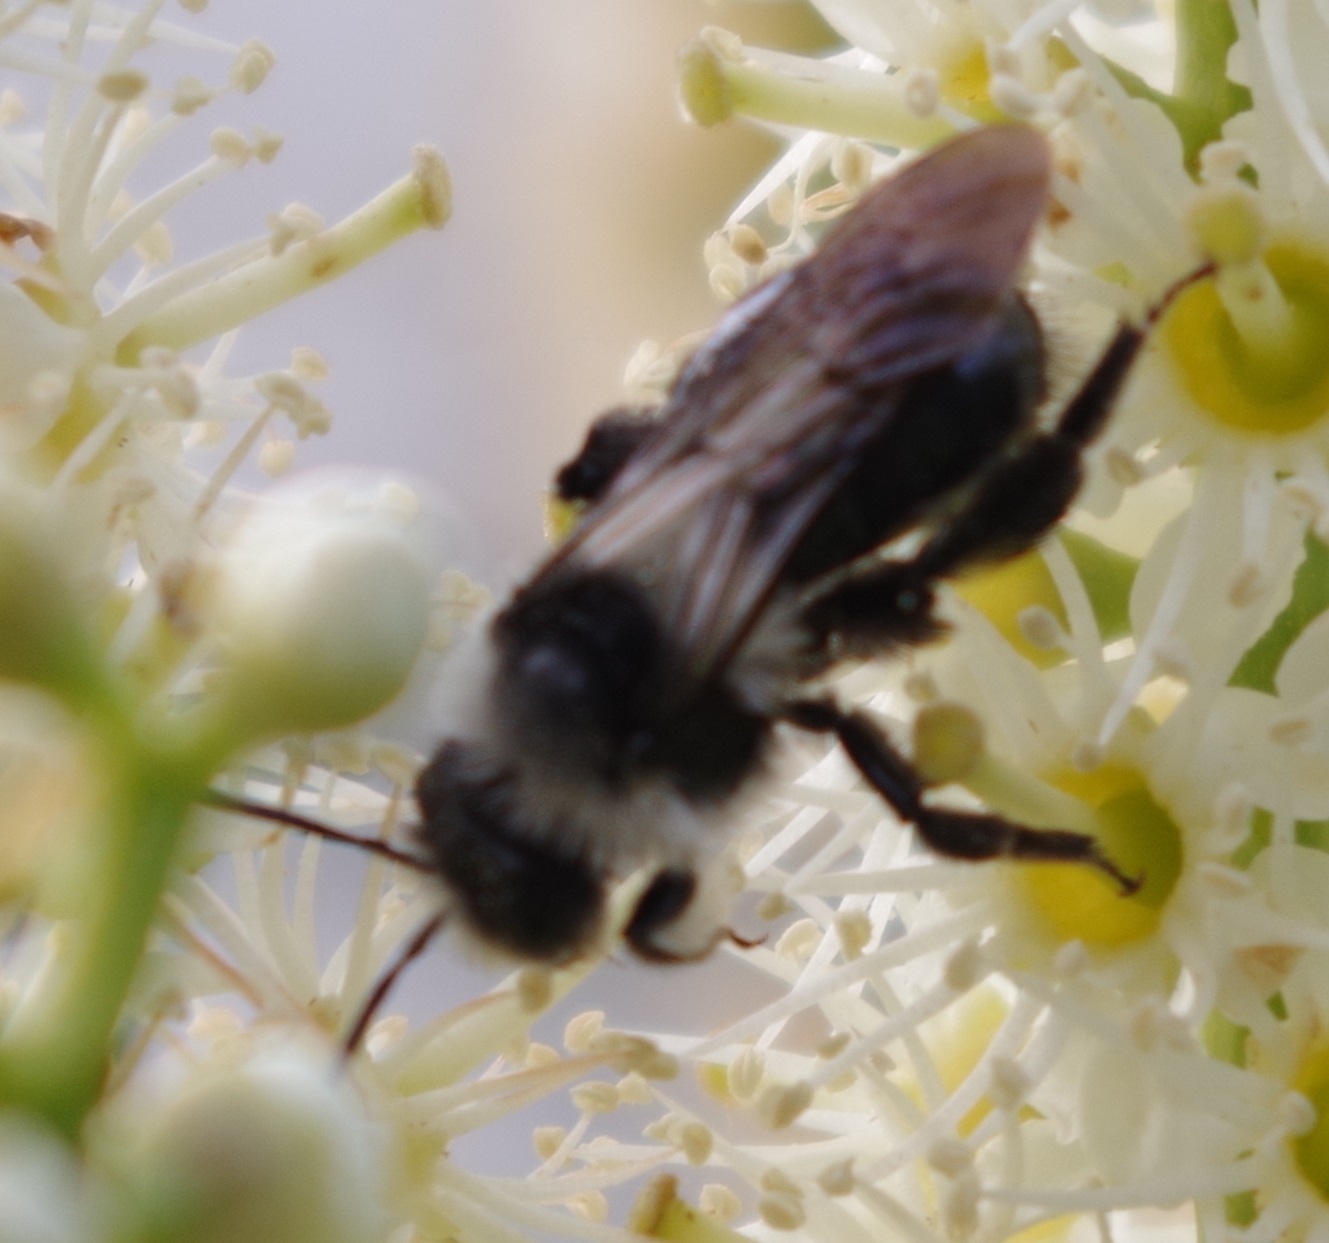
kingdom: Animalia
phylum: Arthropoda
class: Insecta
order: Hymenoptera
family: Andrenidae
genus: Andrena
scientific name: Andrena cineraria
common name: Ashy mining bee
